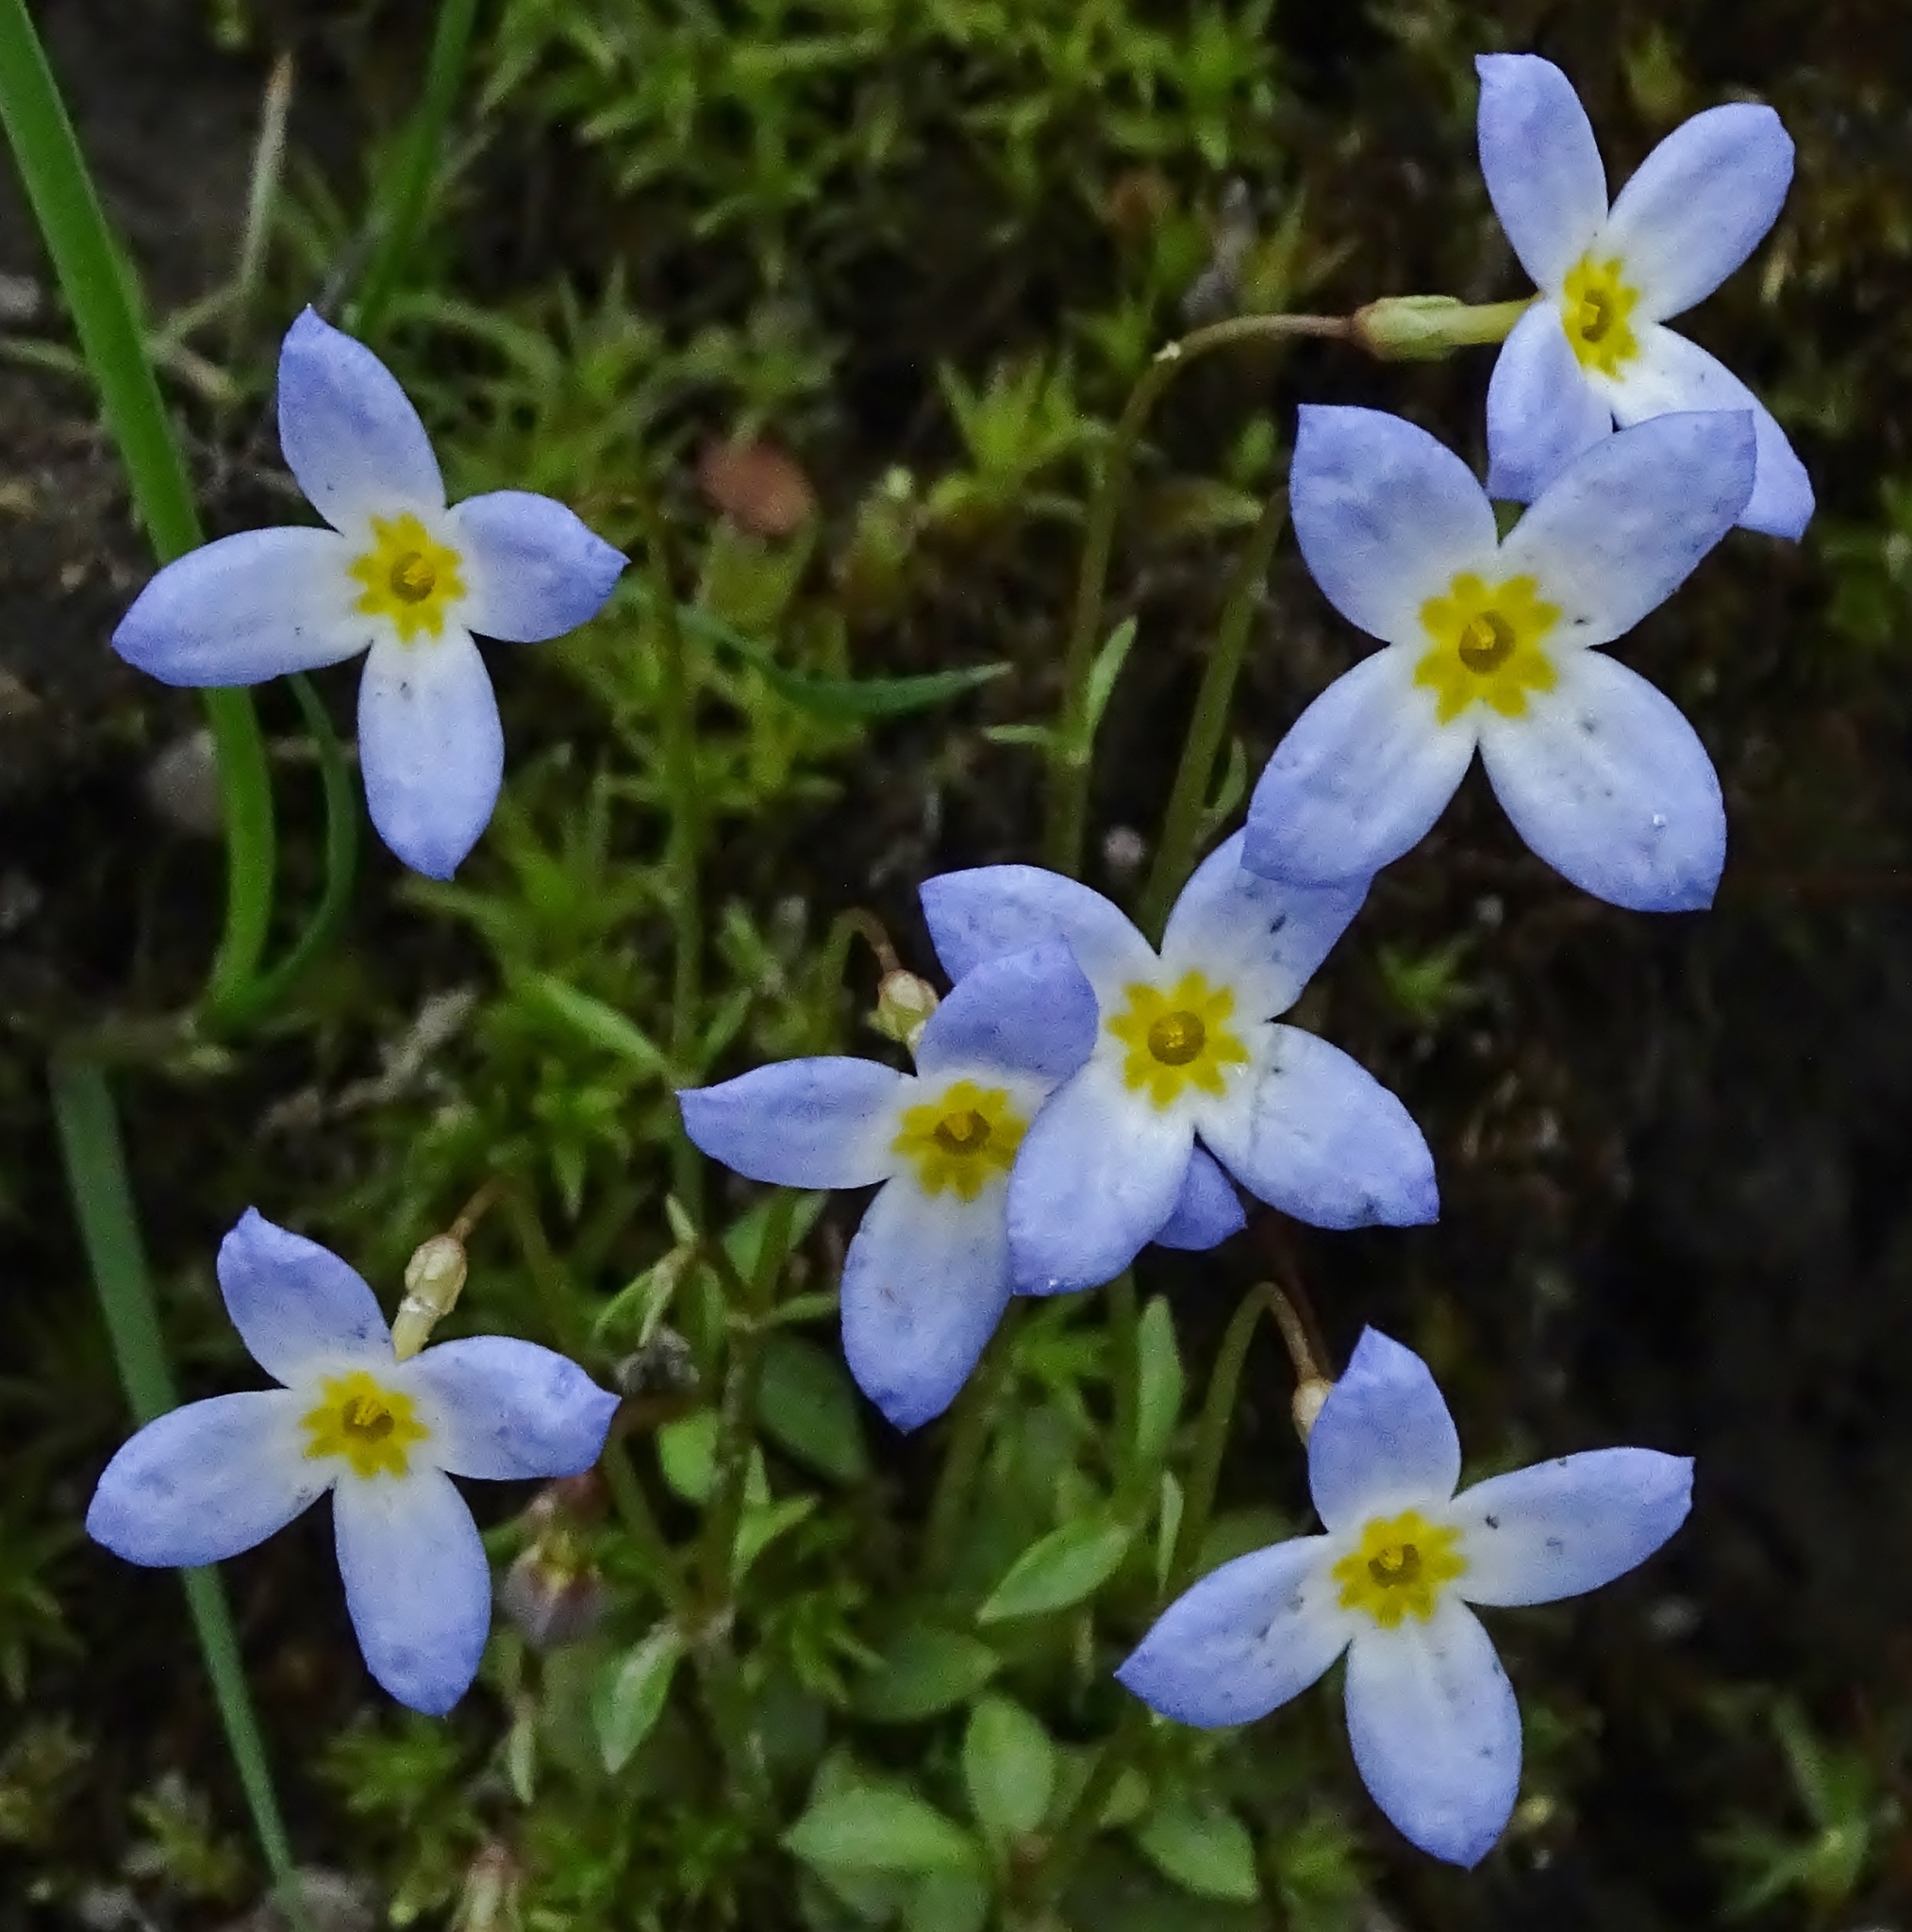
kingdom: Plantae
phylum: Tracheophyta
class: Magnoliopsida
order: Gentianales
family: Rubiaceae
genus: Houstonia
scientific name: Houstonia caerulea
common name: Bluets
